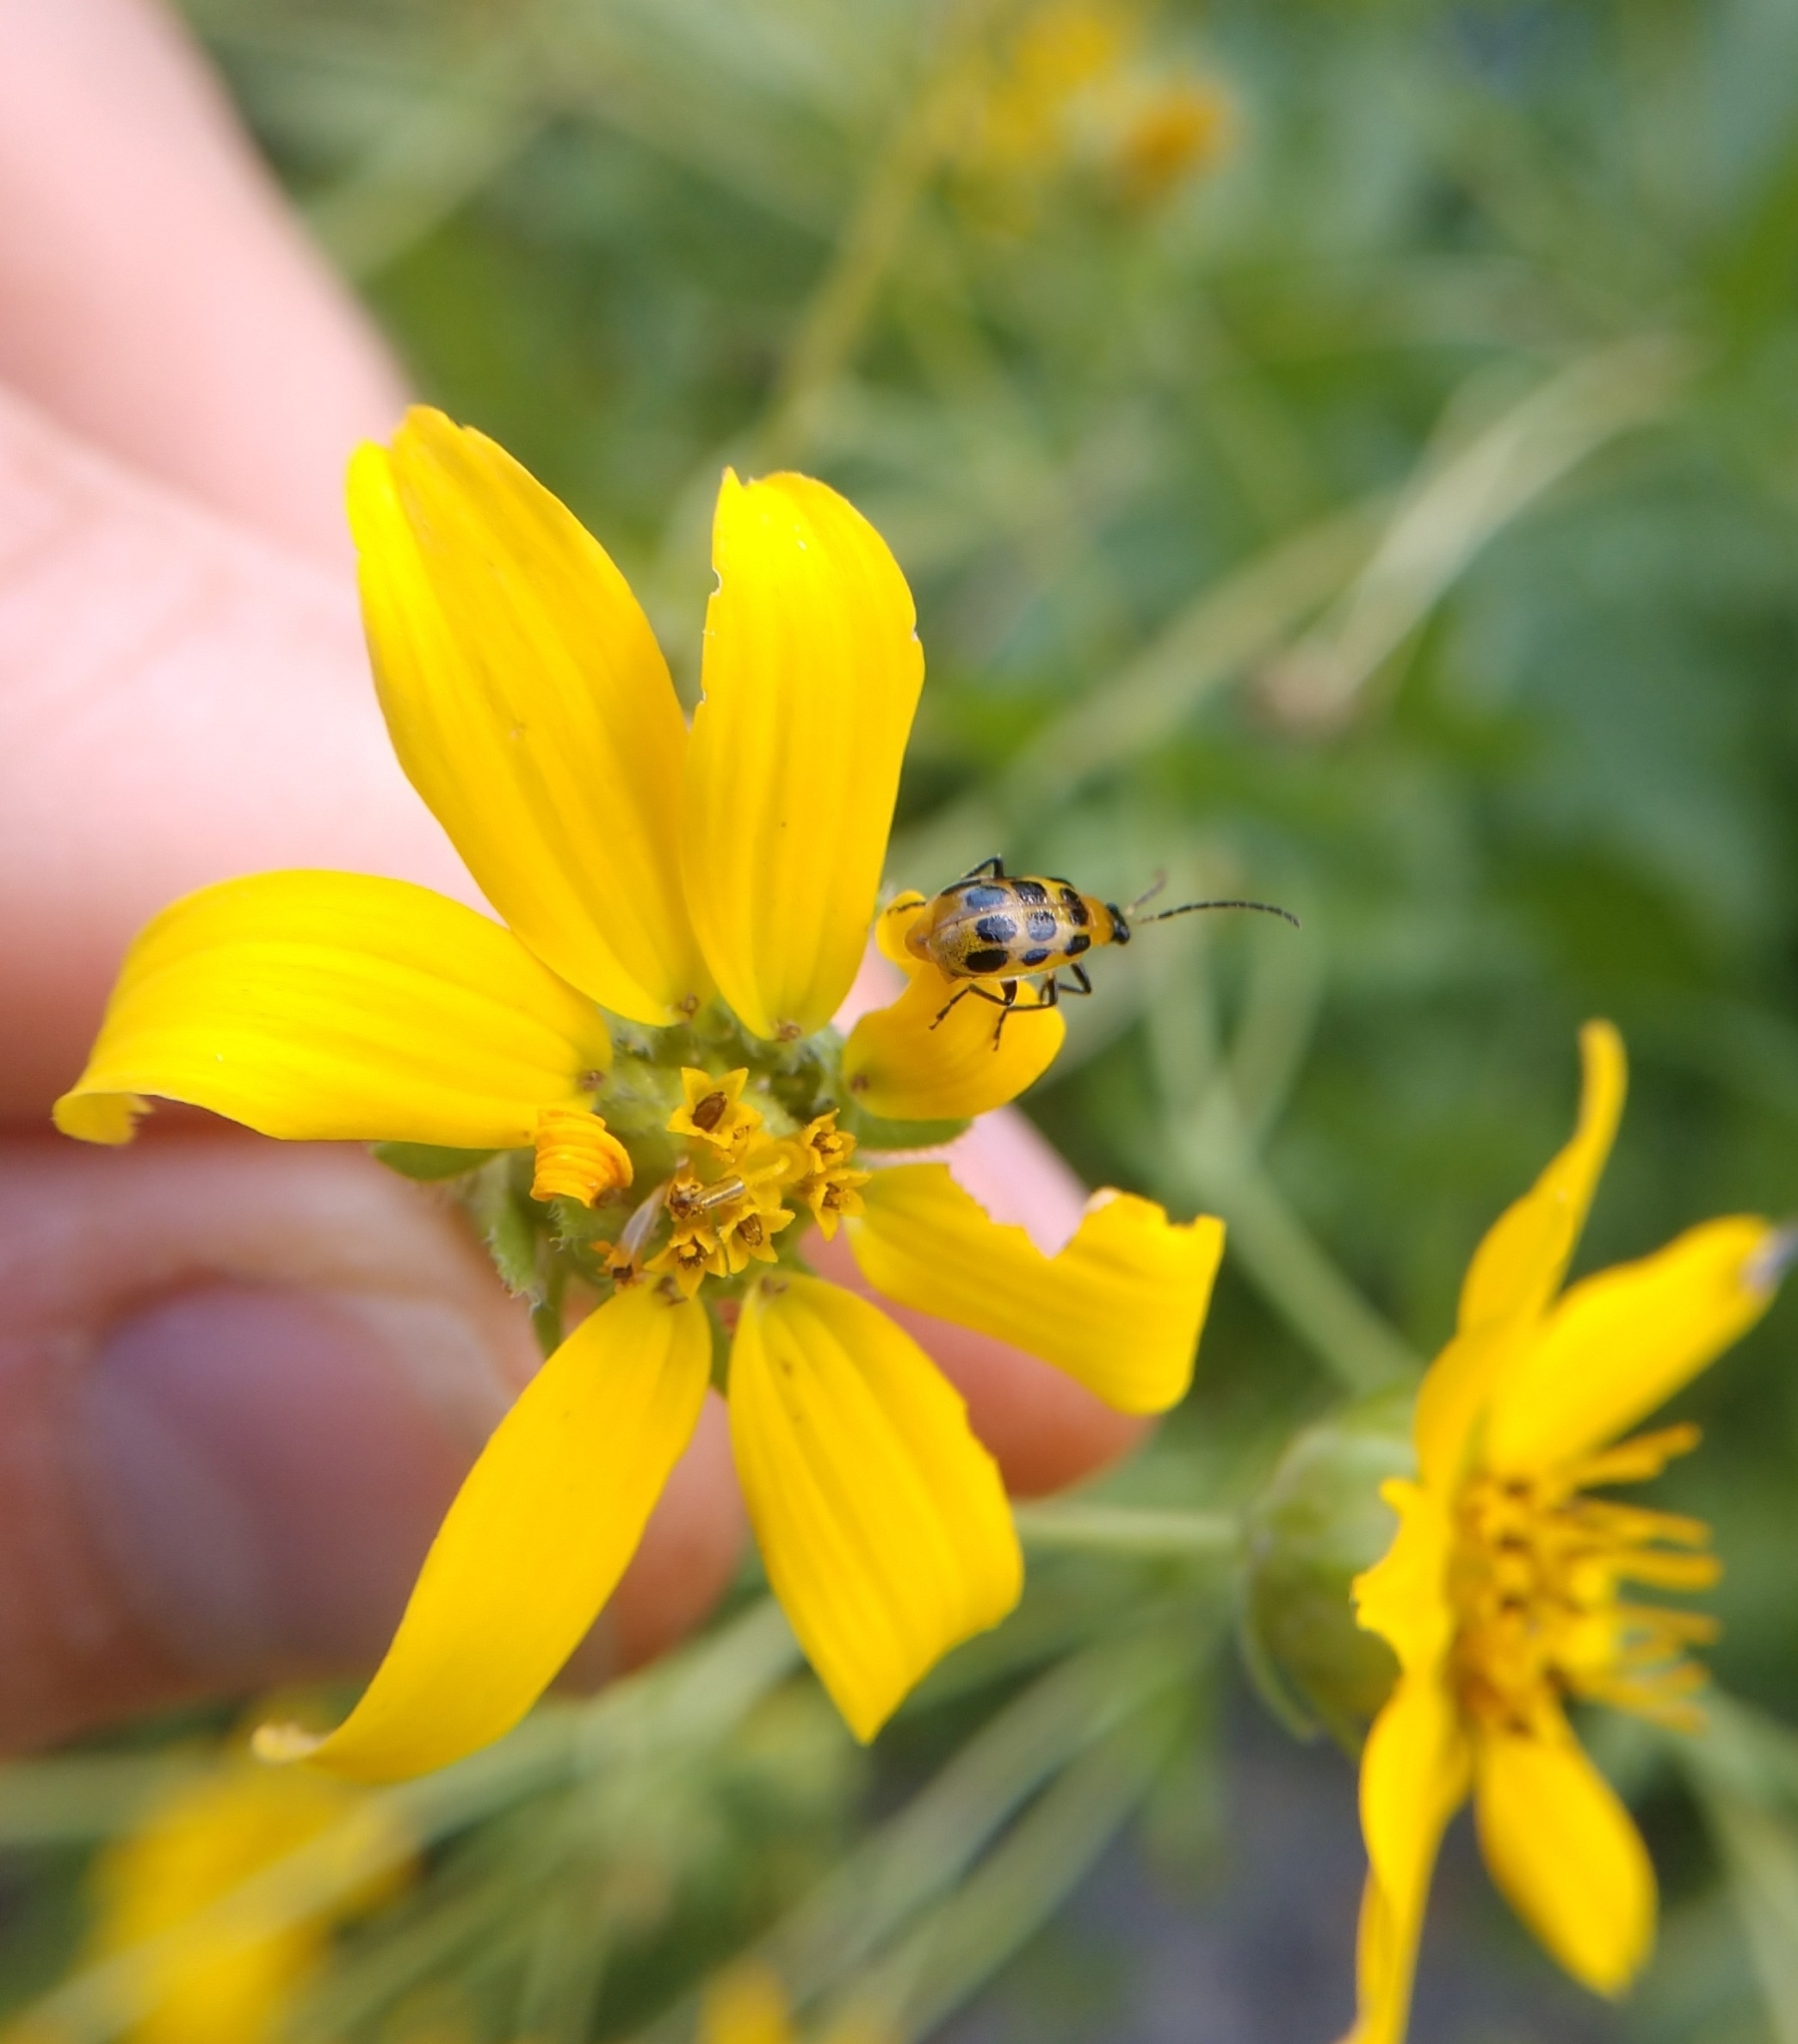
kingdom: Animalia
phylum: Arthropoda
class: Insecta
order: Coleoptera
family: Chrysomelidae
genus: Diabrotica
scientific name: Diabrotica undecimpunctata
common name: Spotted cucumber beetle
